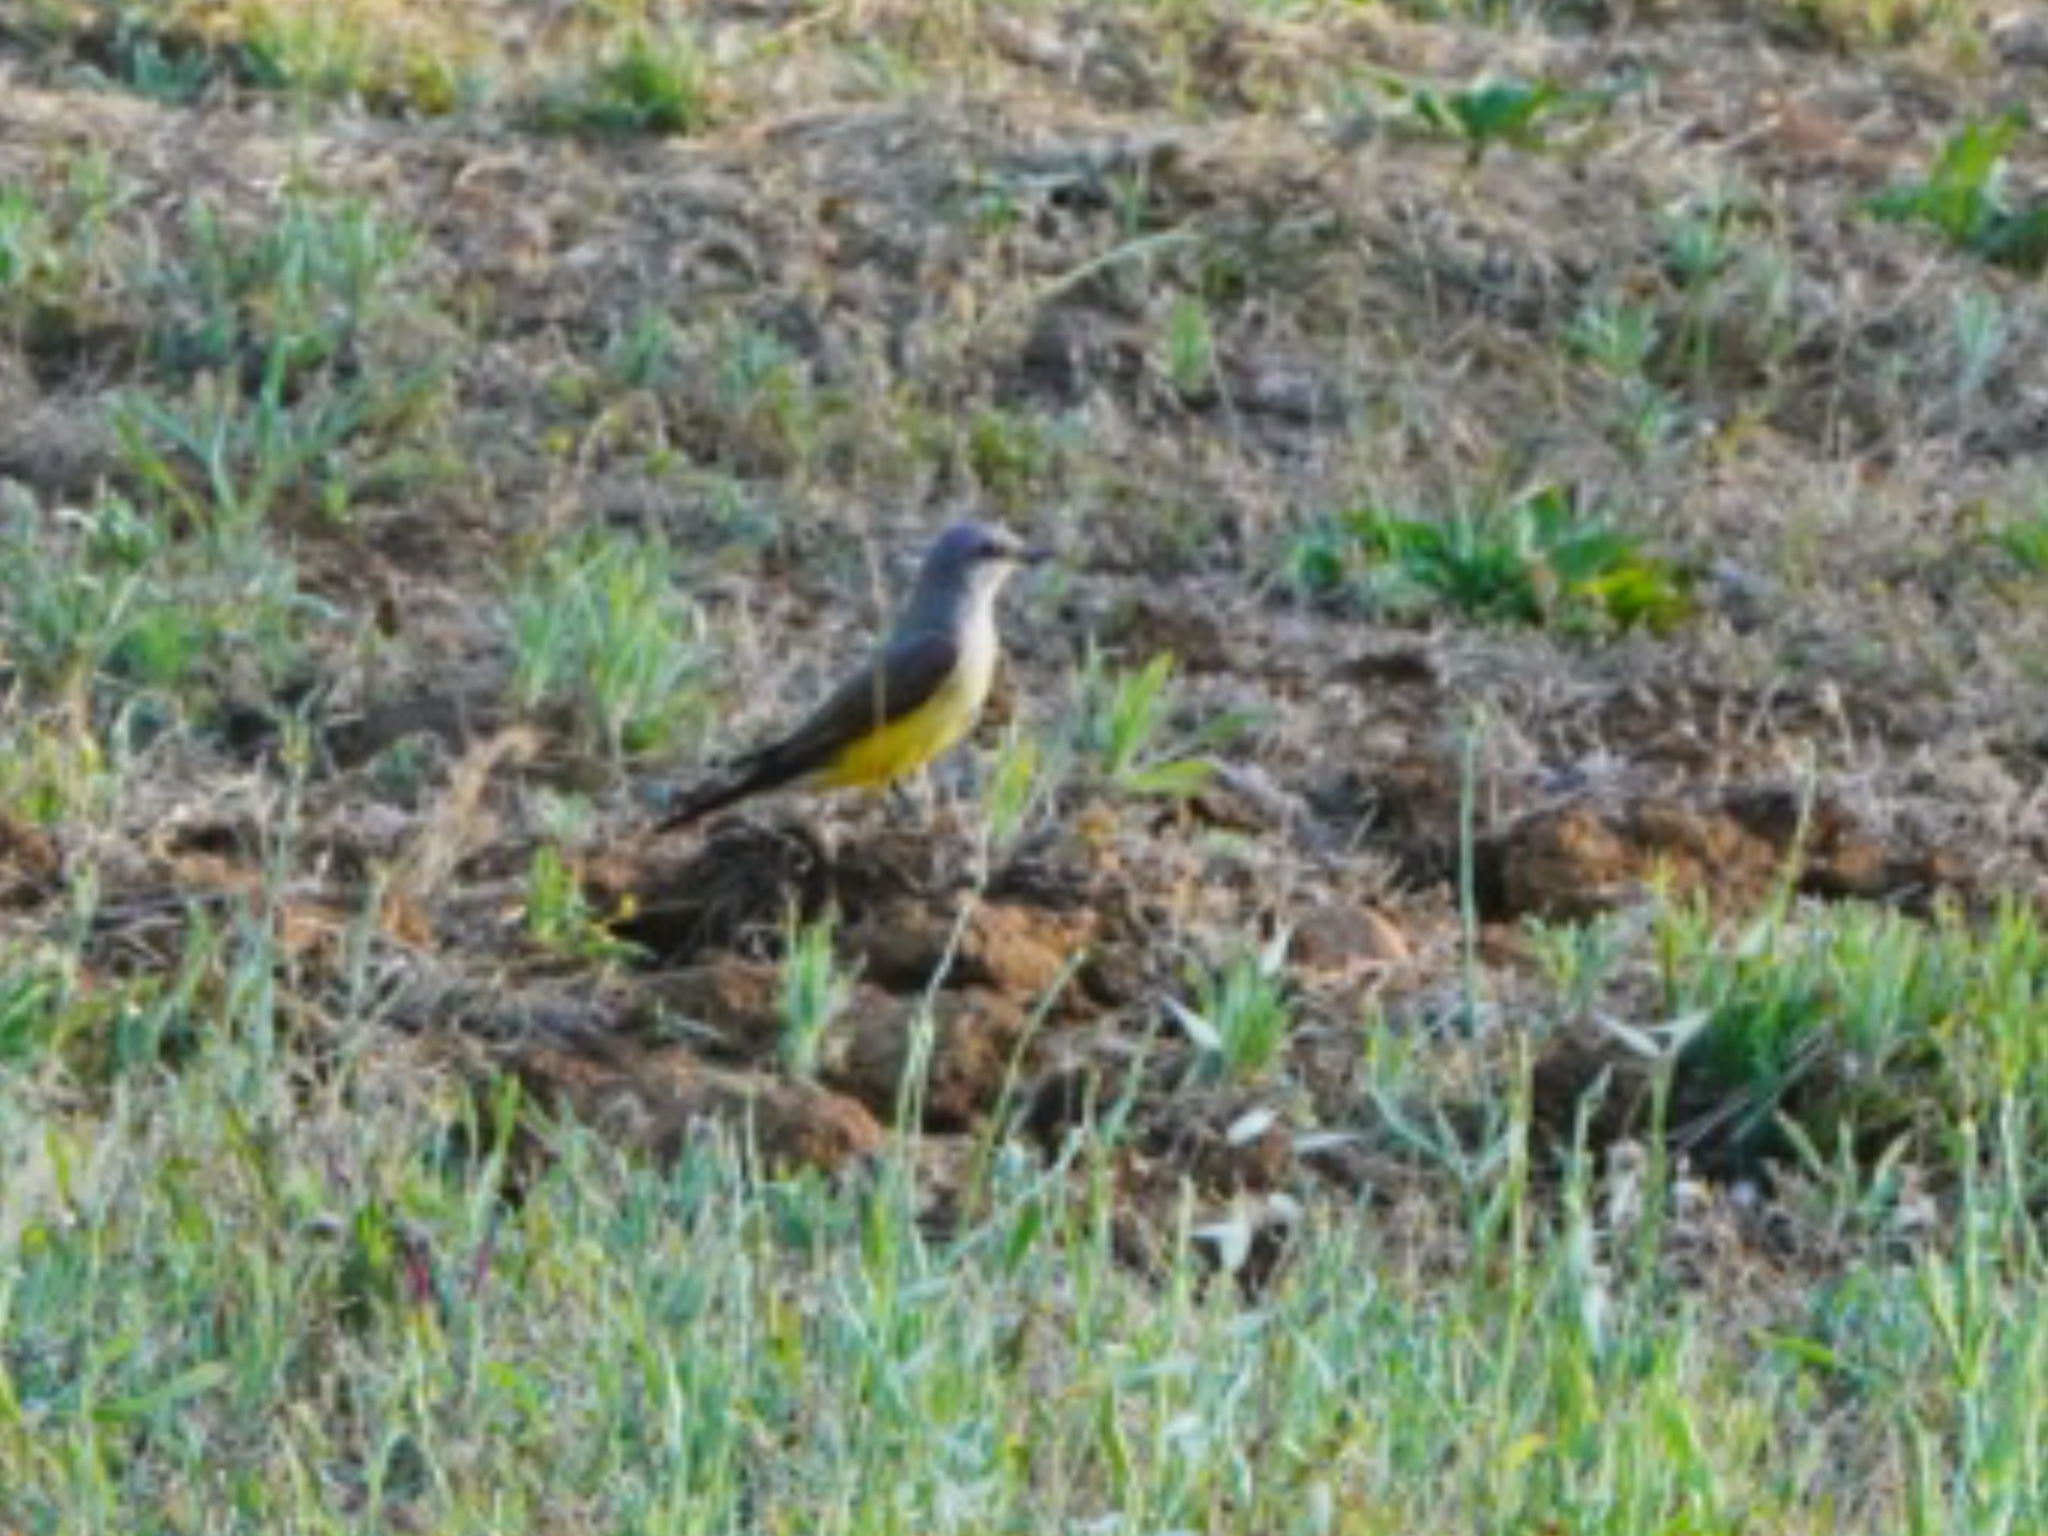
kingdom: Animalia
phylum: Chordata
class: Aves
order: Passeriformes
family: Tyrannidae
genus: Tyrannus
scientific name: Tyrannus verticalis
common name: Western kingbird
